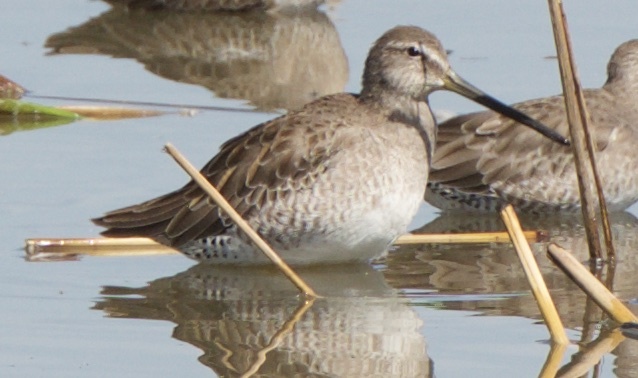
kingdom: Animalia
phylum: Chordata
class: Aves
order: Charadriiformes
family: Scolopacidae
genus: Limnodromus
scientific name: Limnodromus scolopaceus
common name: Long-billed dowitcher
